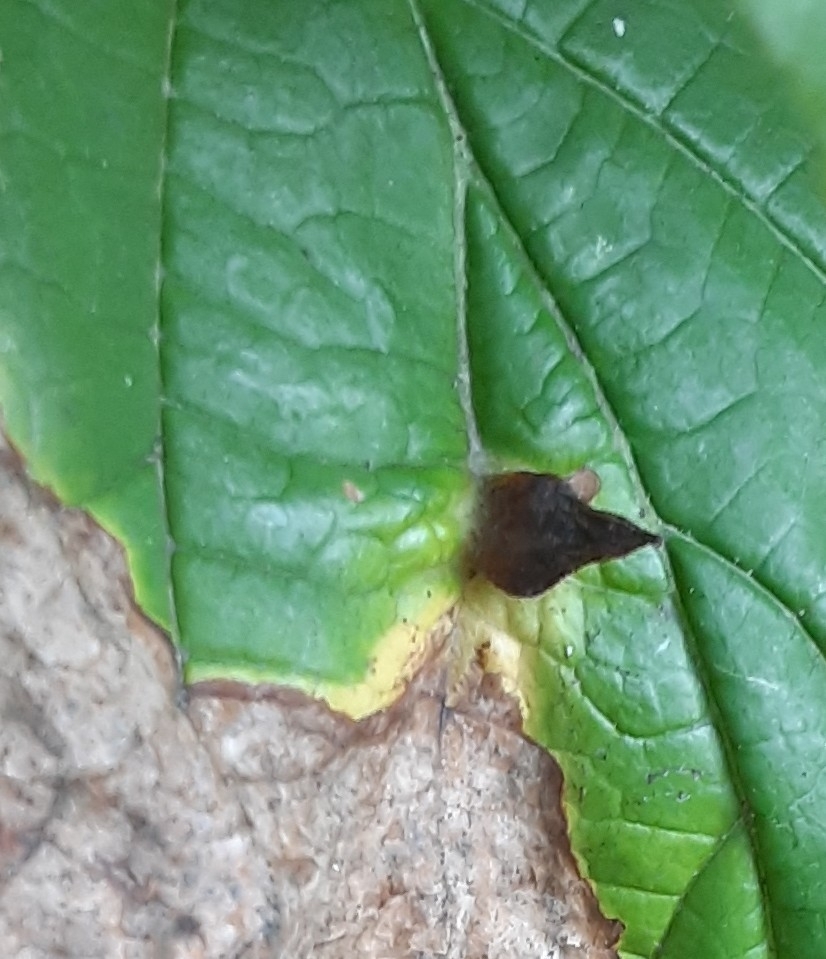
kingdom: Animalia
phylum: Arthropoda
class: Insecta
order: Hemiptera
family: Aphididae
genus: Hormaphis
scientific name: Hormaphis hamamelidis
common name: Witch-hazel cone gall aphid
